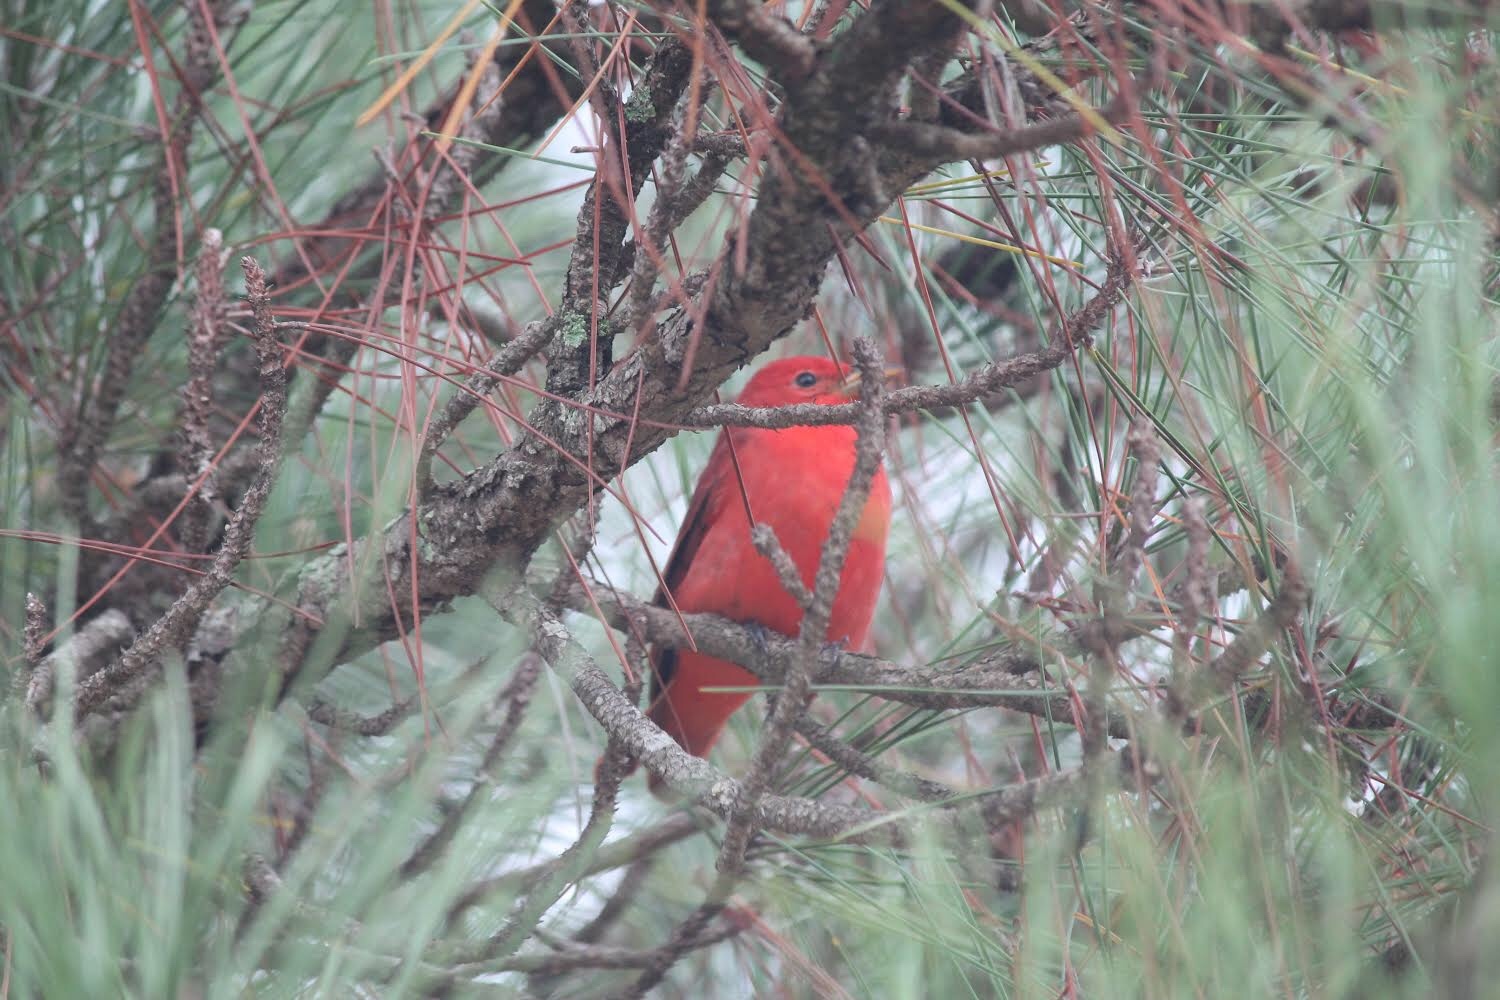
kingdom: Animalia
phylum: Chordata
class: Aves
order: Passeriformes
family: Cardinalidae
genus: Piranga
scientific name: Piranga rubra
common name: Summer tanager
